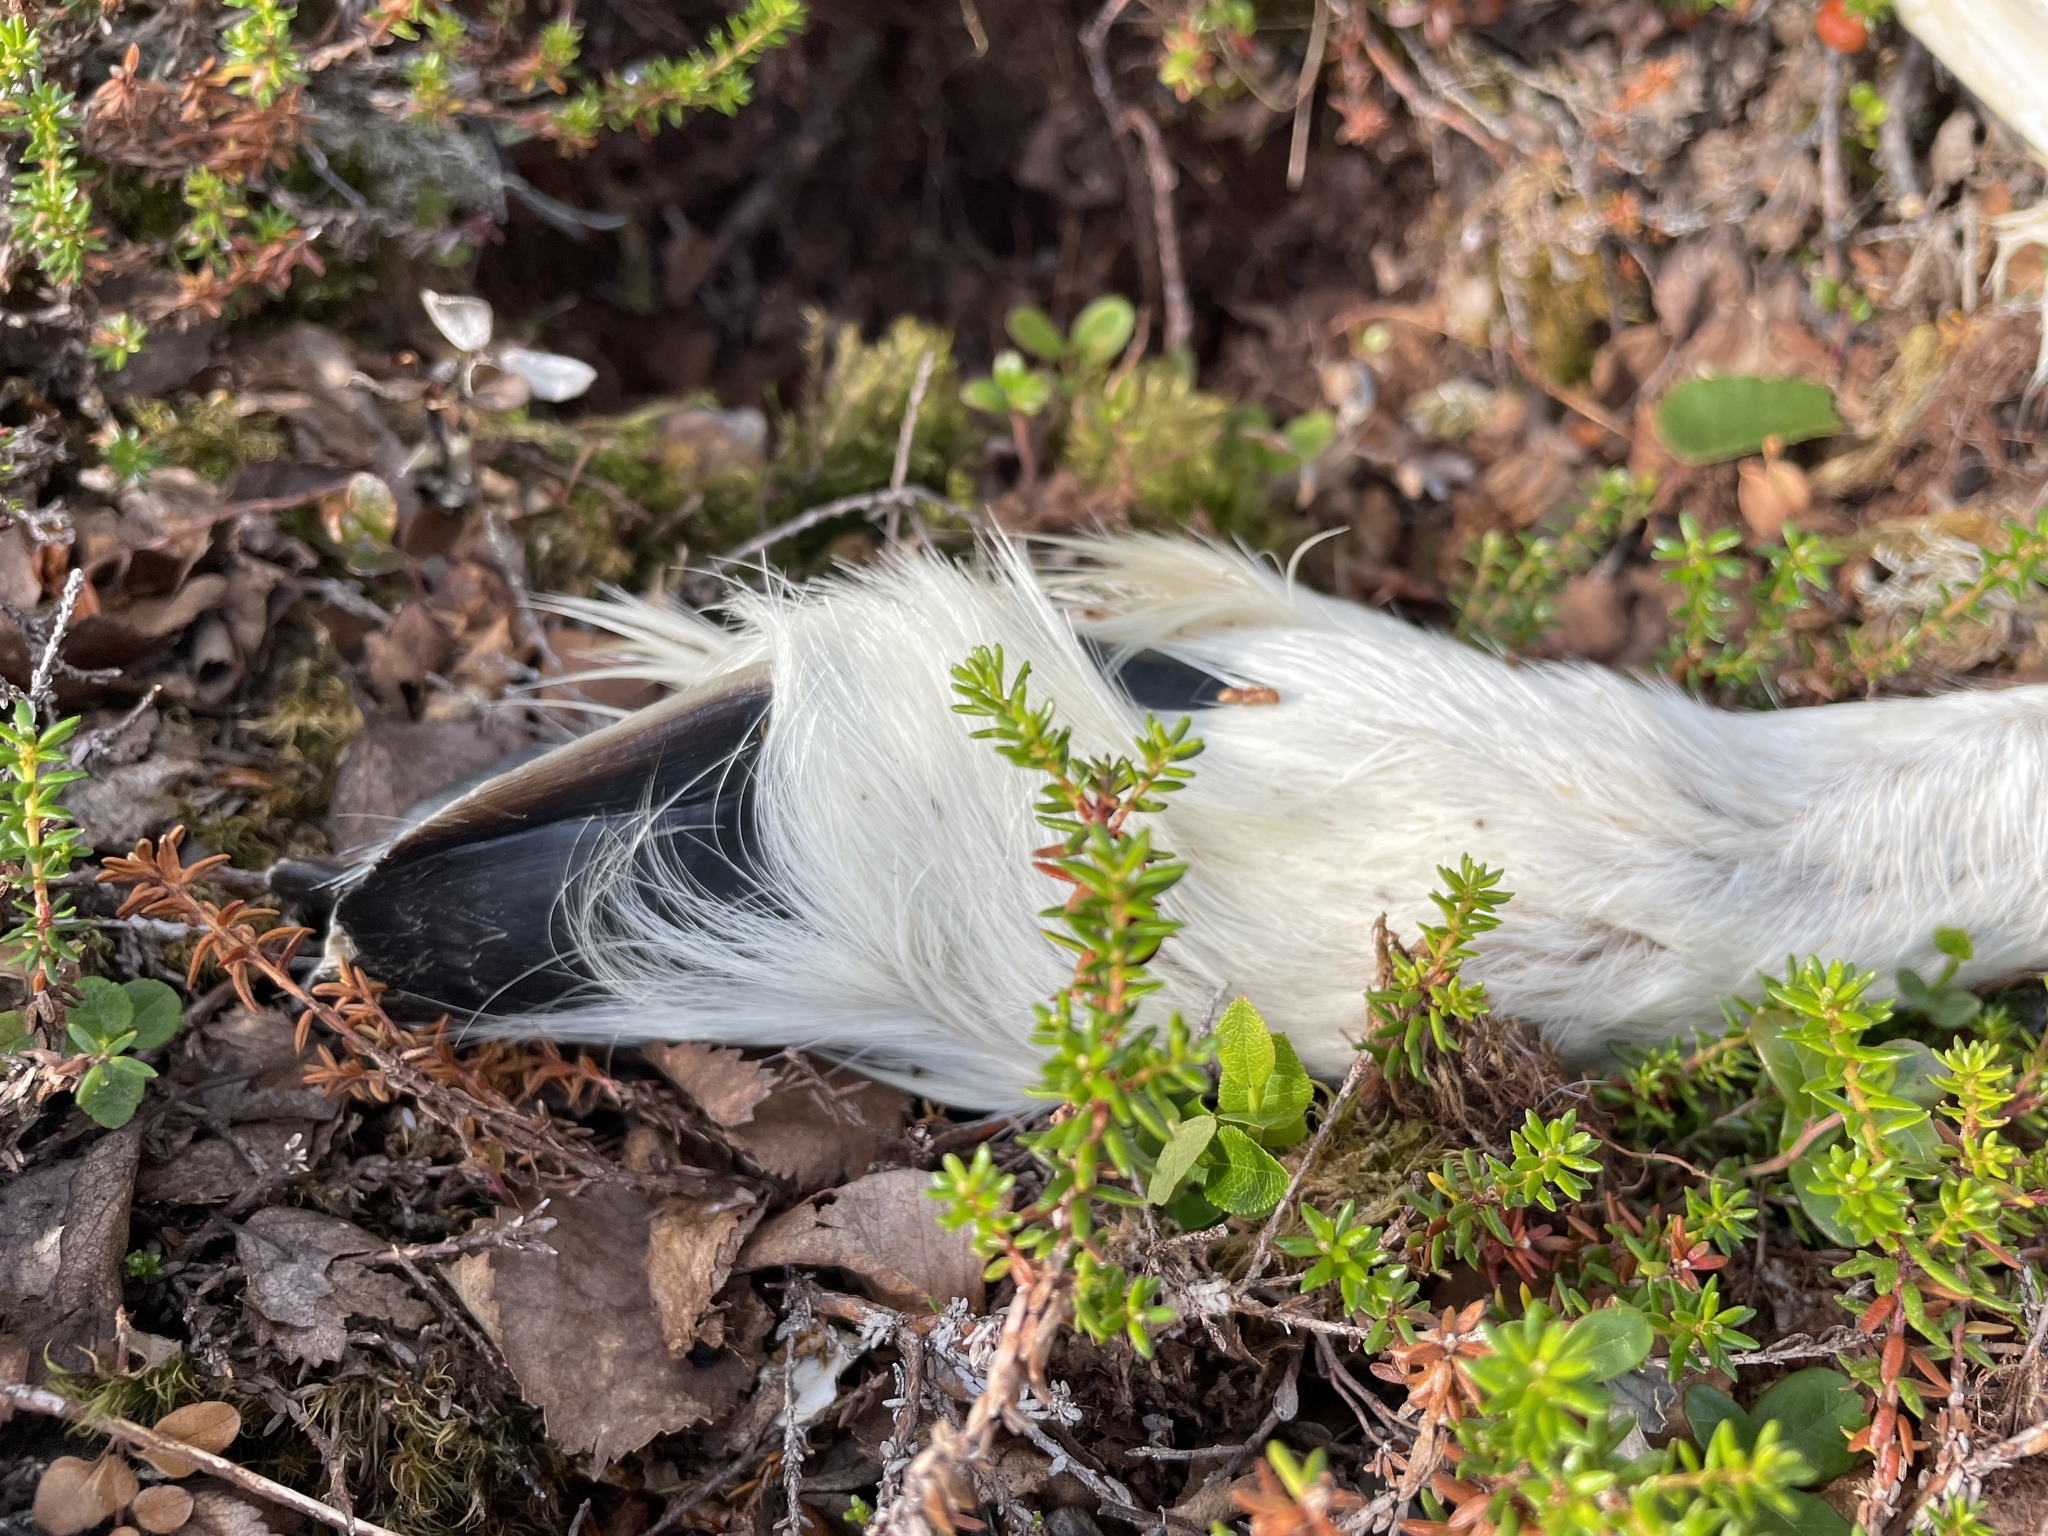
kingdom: Animalia
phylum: Chordata
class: Mammalia
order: Artiodactyla
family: Cervidae
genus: Rangifer
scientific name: Rangifer tarandus
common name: Reindeer
